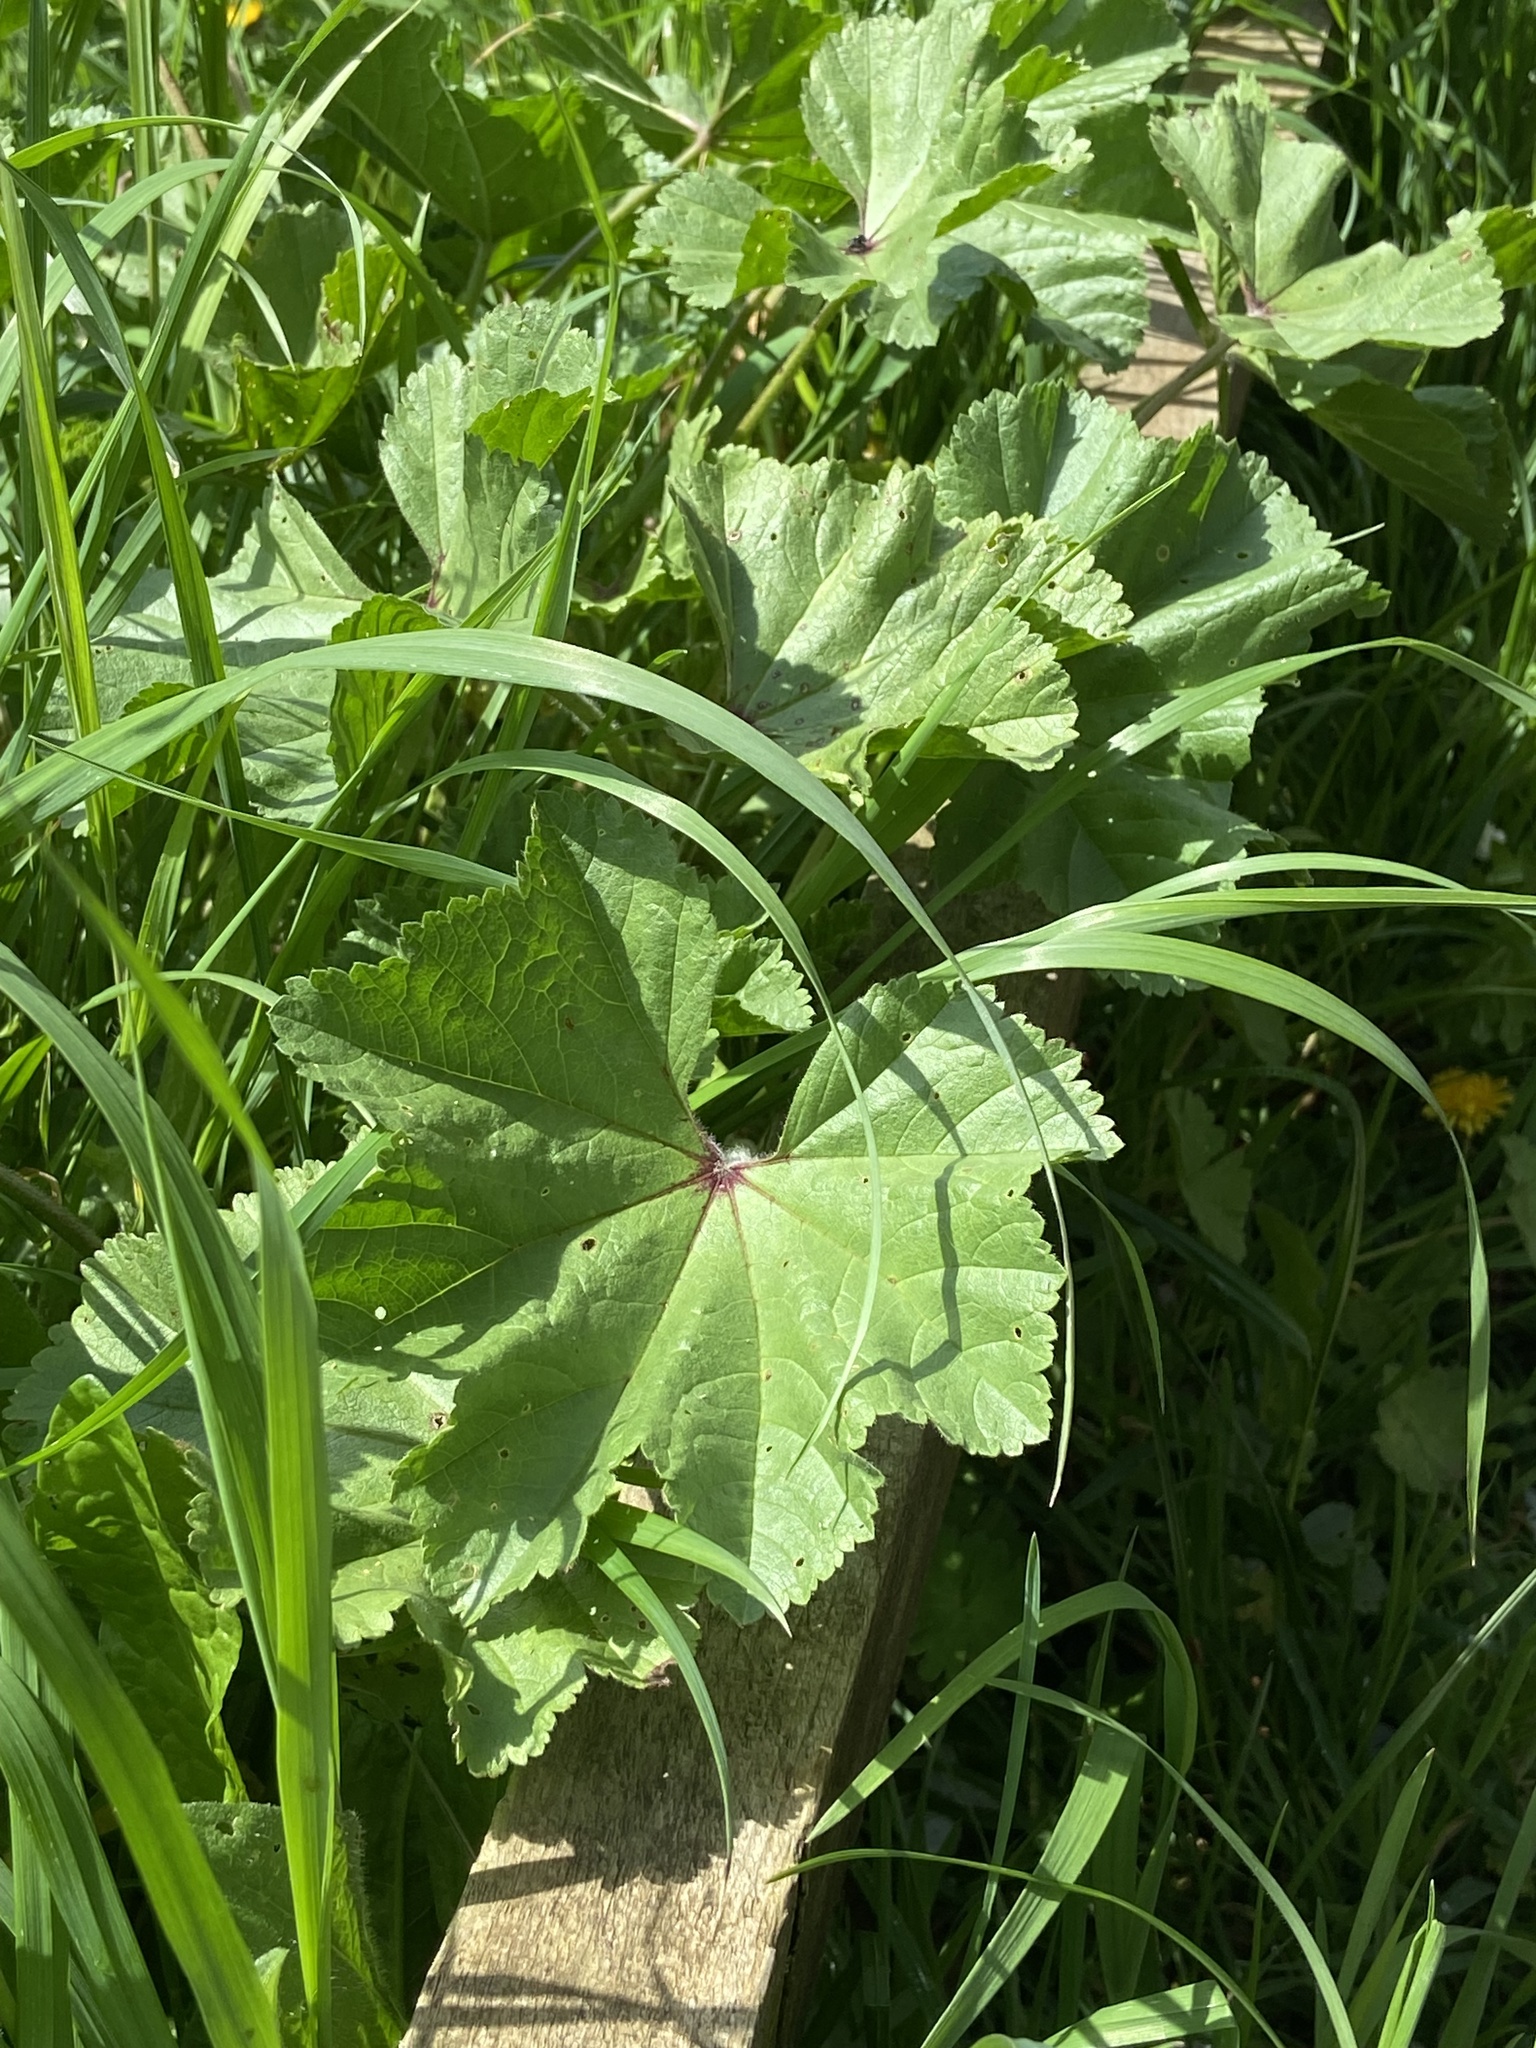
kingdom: Plantae
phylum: Tracheophyta
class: Magnoliopsida
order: Malvales
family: Malvaceae
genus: Malva
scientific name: Malva sylvestris
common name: Common mallow
